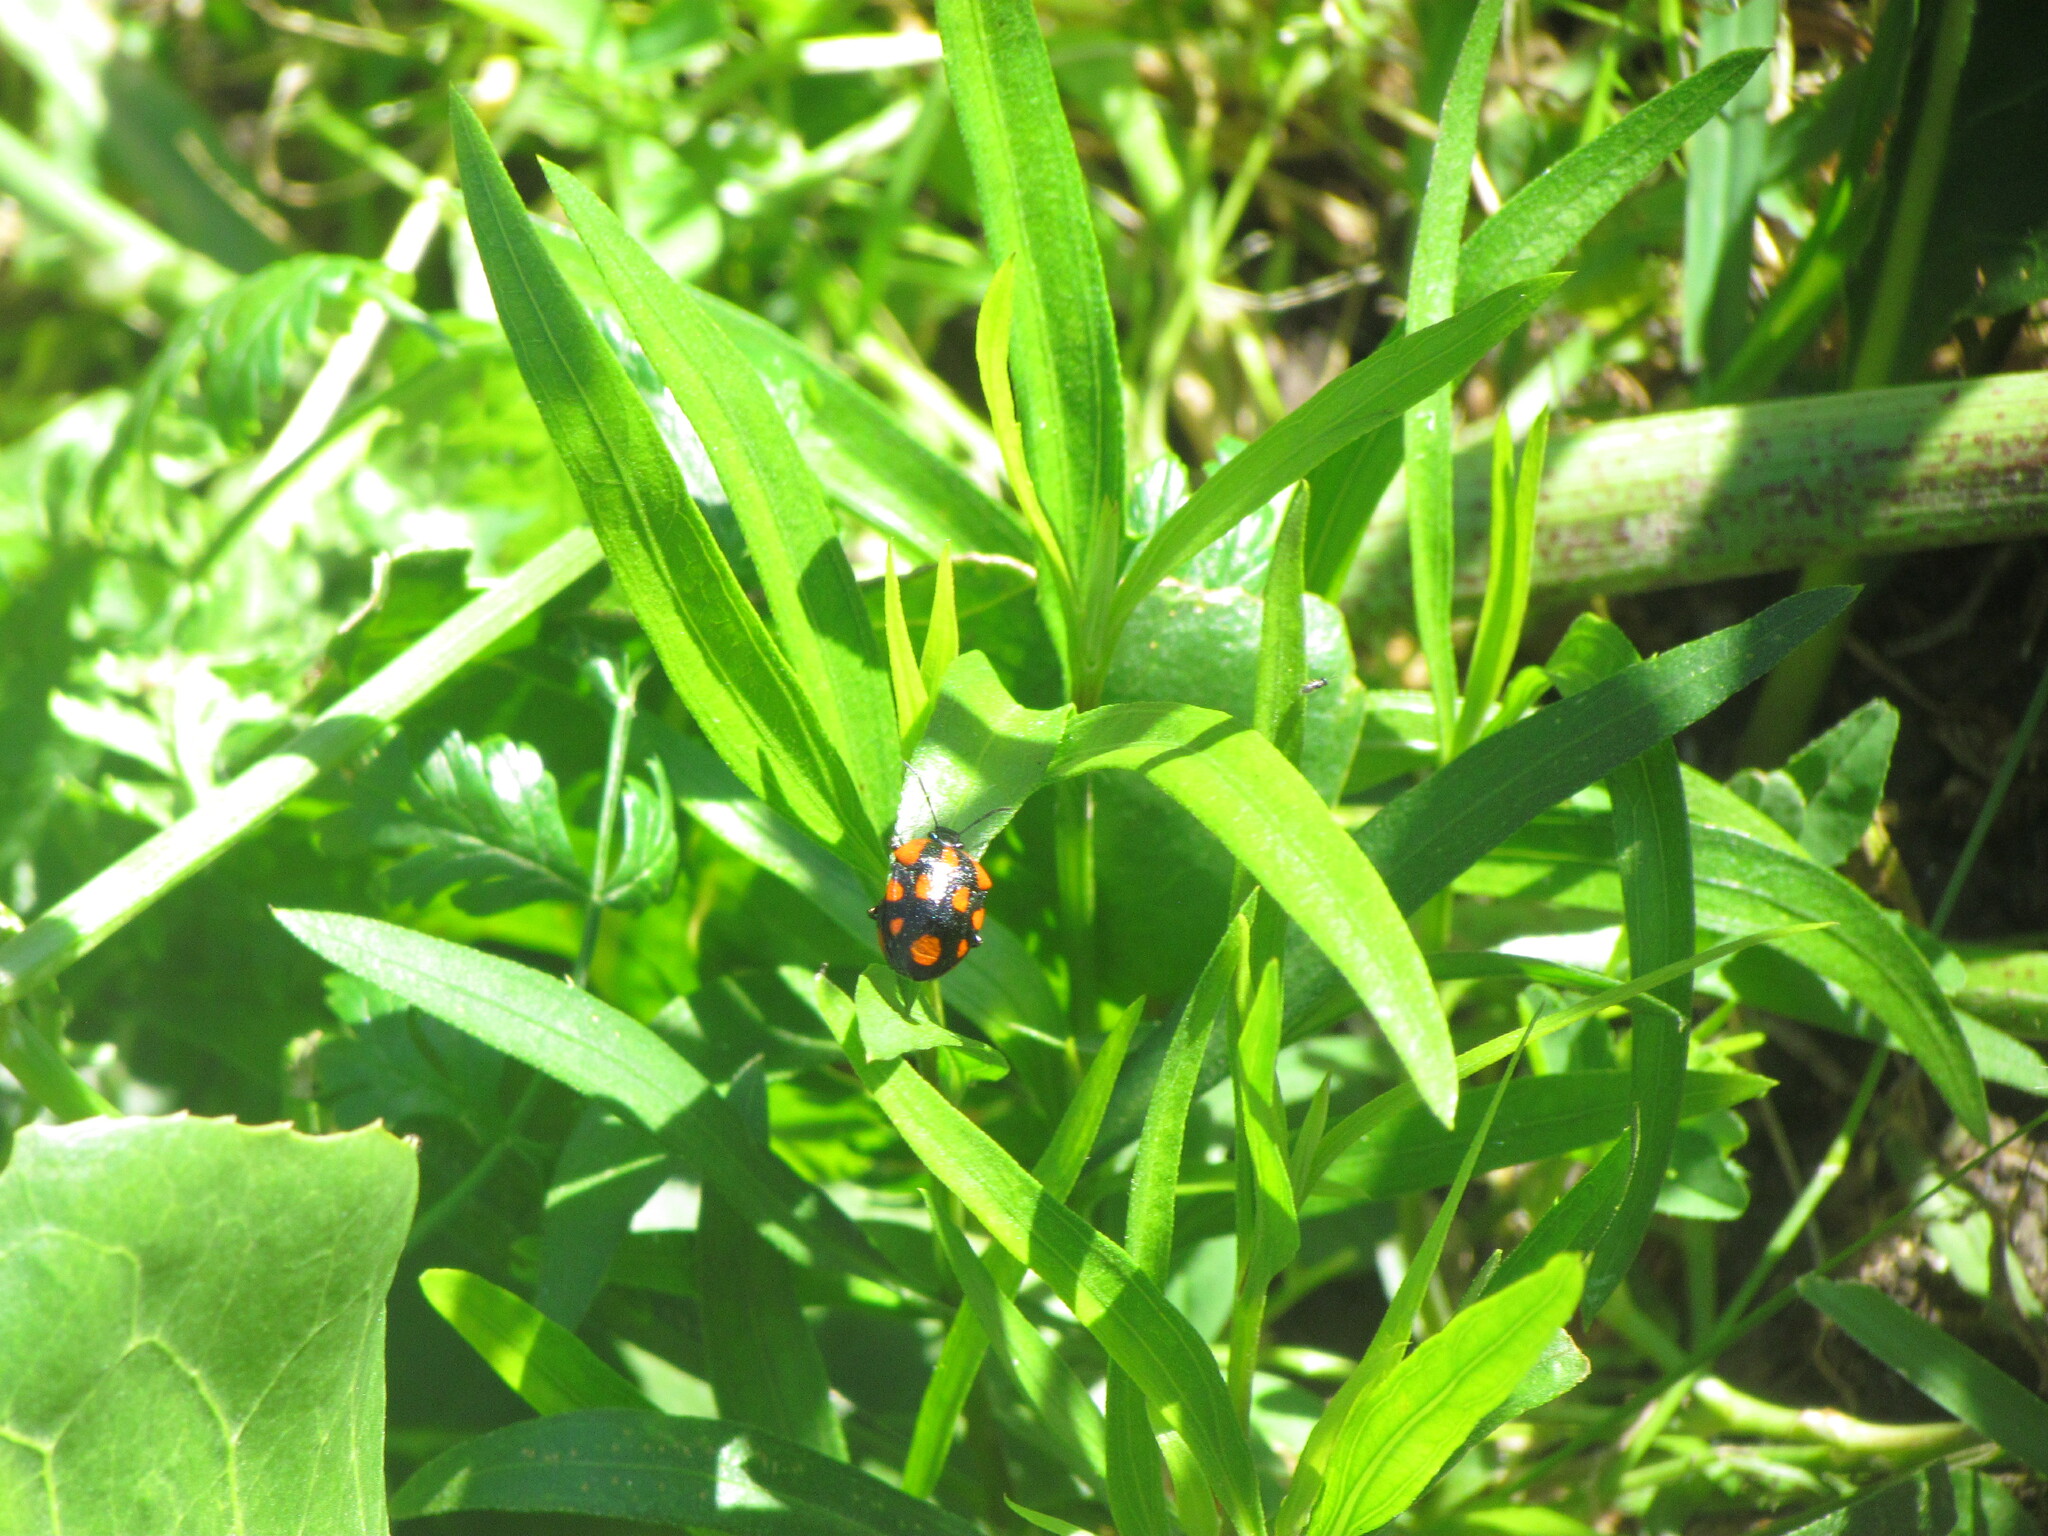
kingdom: Animalia
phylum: Arthropoda
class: Insecta
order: Hemiptera
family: Pentatomidae
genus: Stiretrus
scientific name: Stiretrus
